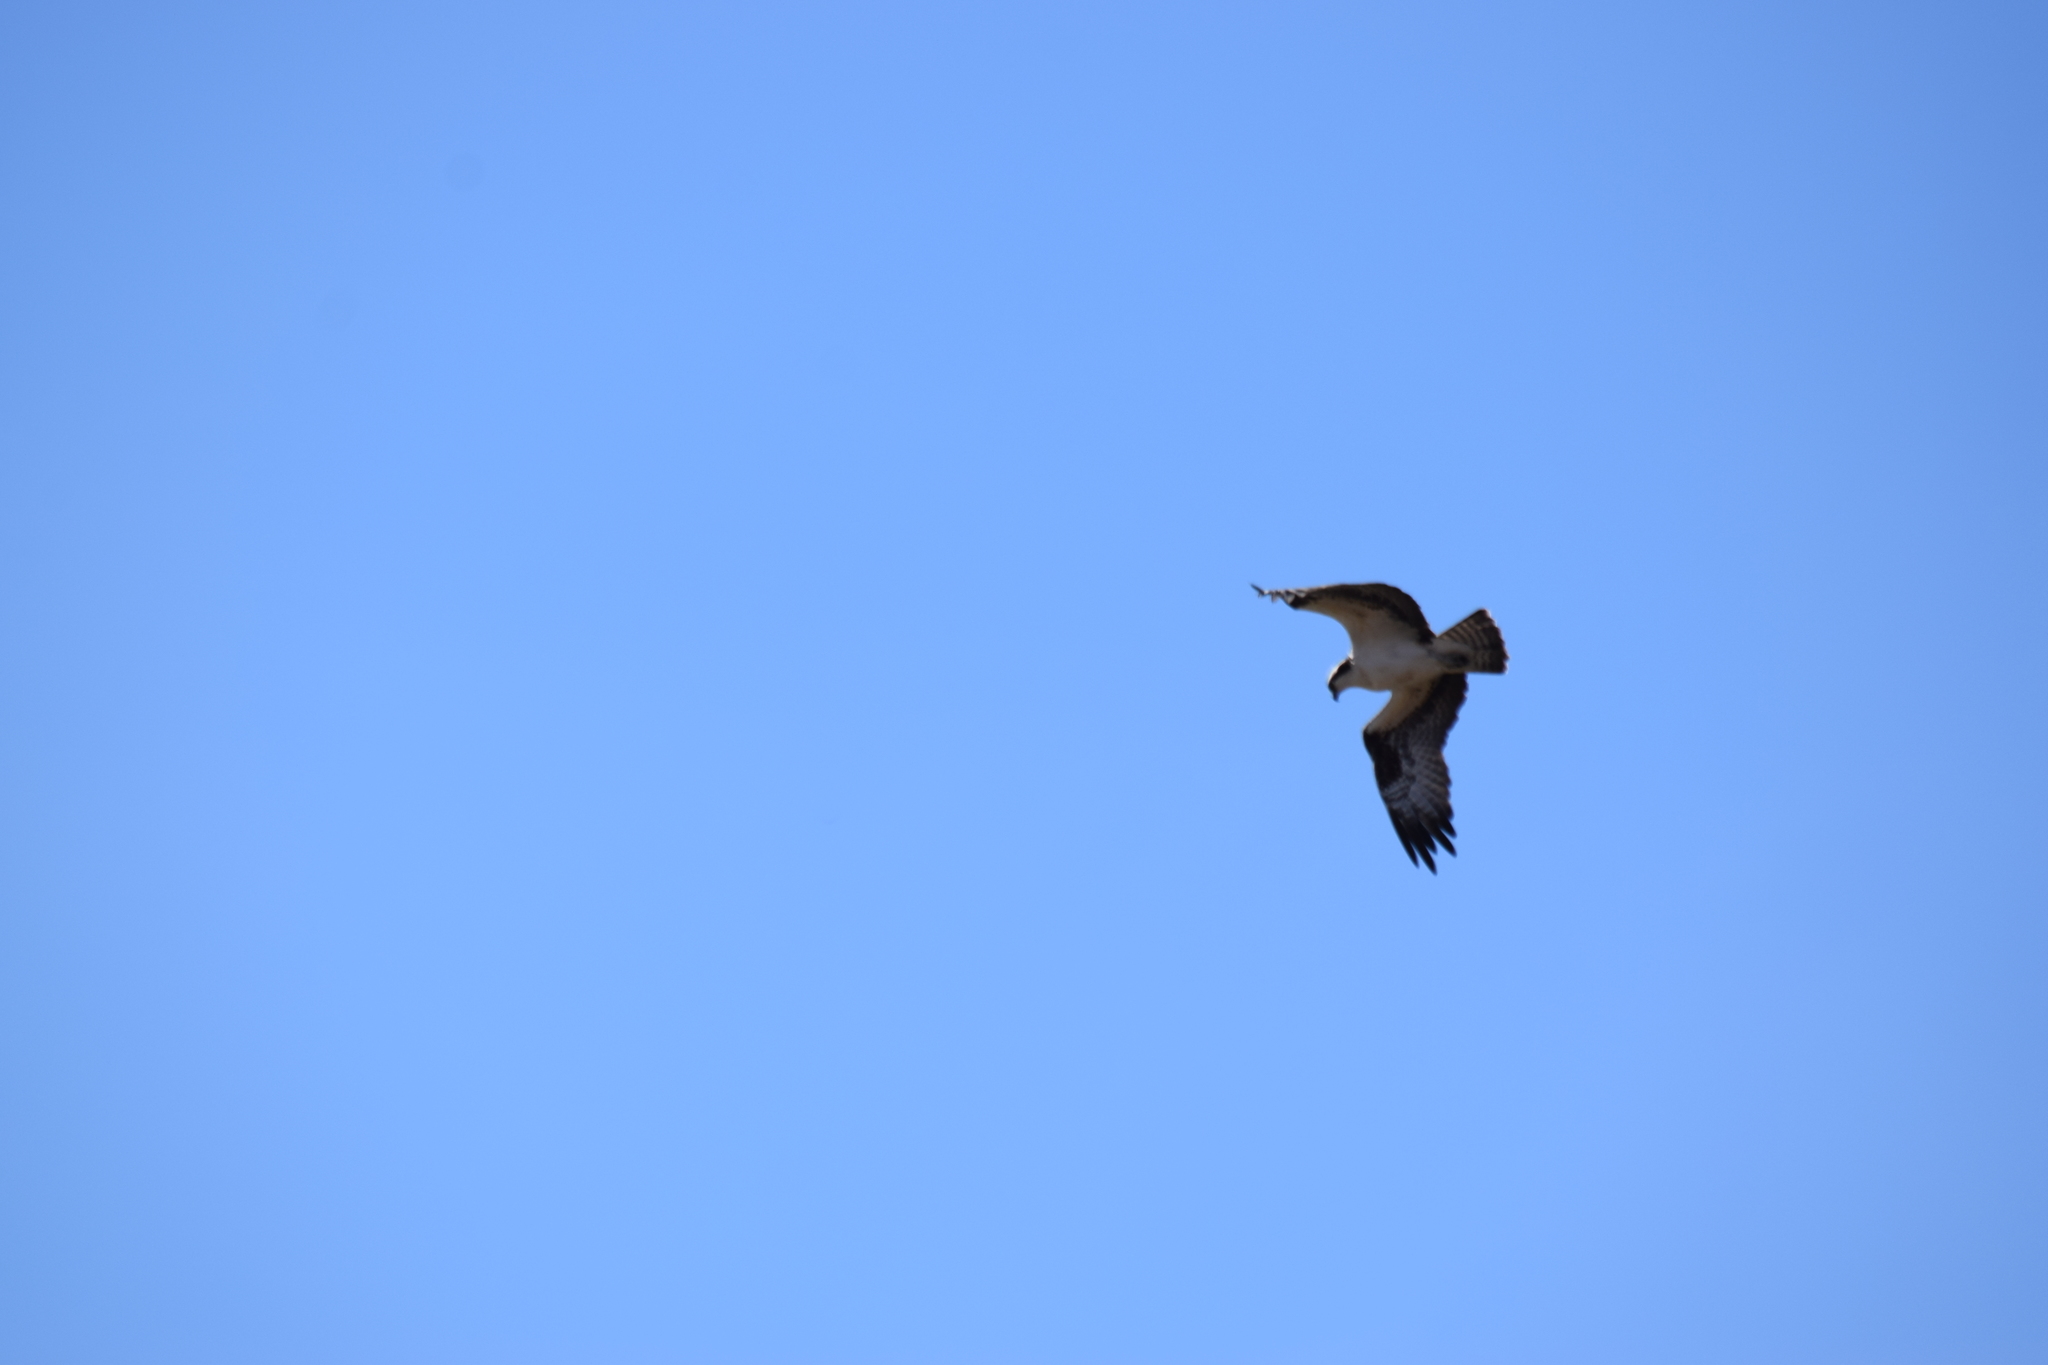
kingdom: Animalia
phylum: Chordata
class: Aves
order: Accipitriformes
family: Pandionidae
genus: Pandion
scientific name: Pandion haliaetus
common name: Osprey
